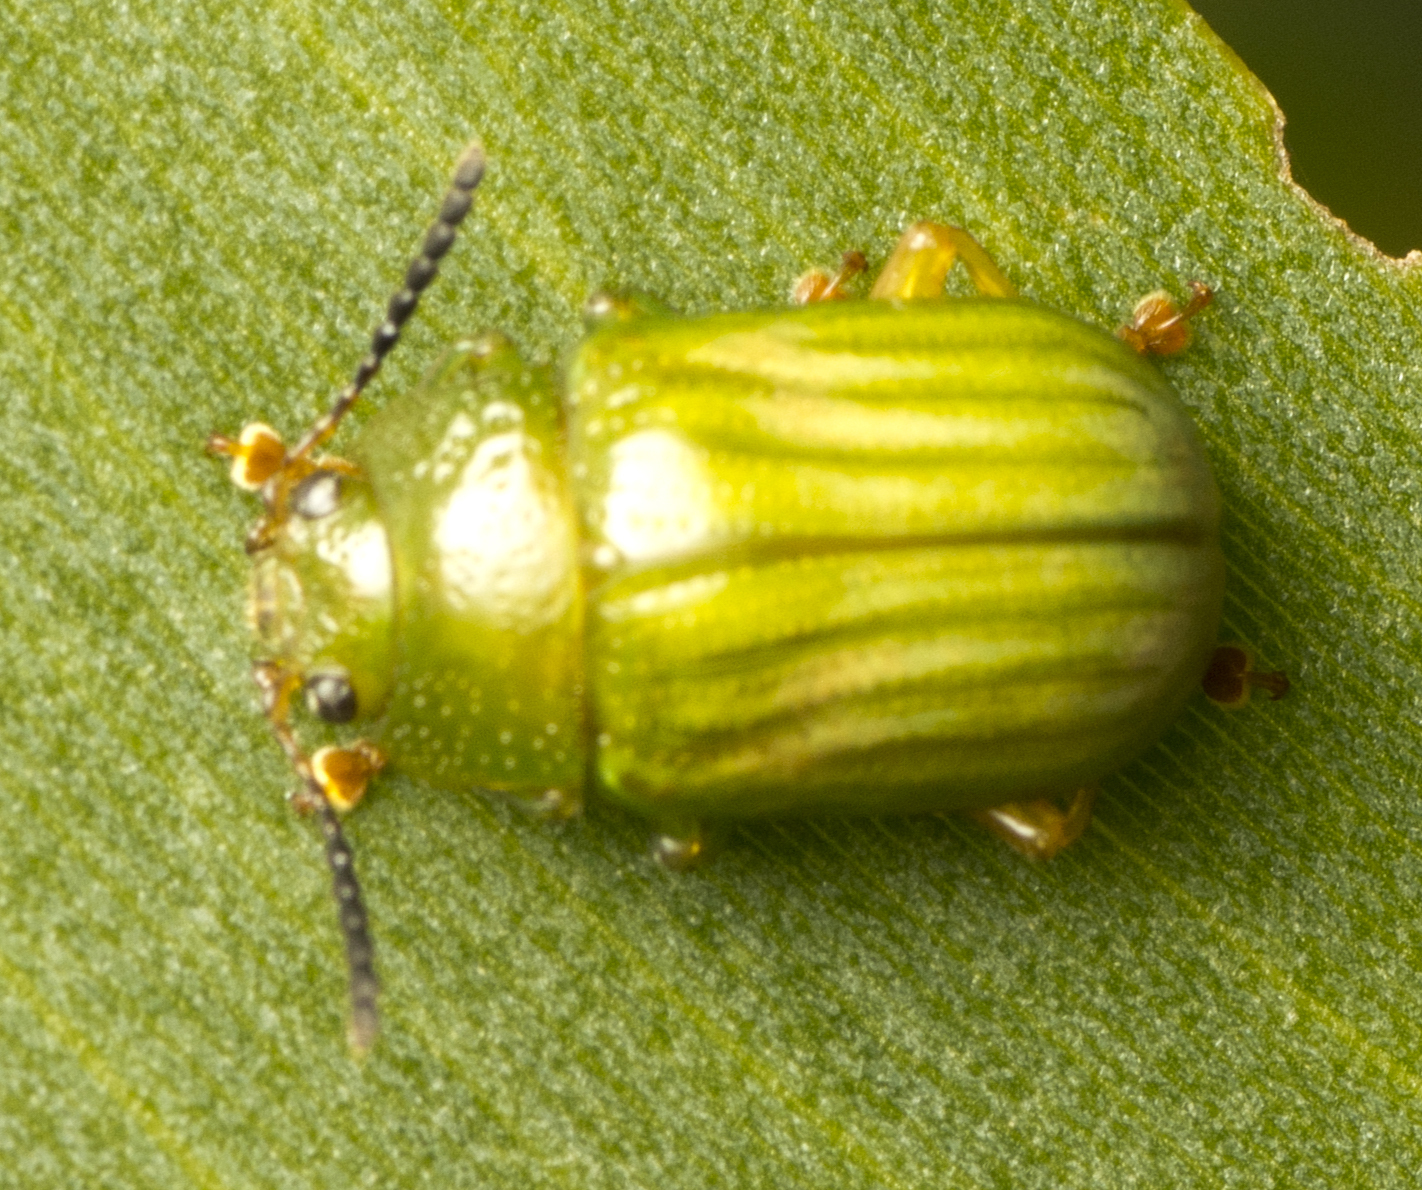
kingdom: Animalia
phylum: Arthropoda
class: Insecta
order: Coleoptera
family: Chrysomelidae
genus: Calomela
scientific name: Calomela
